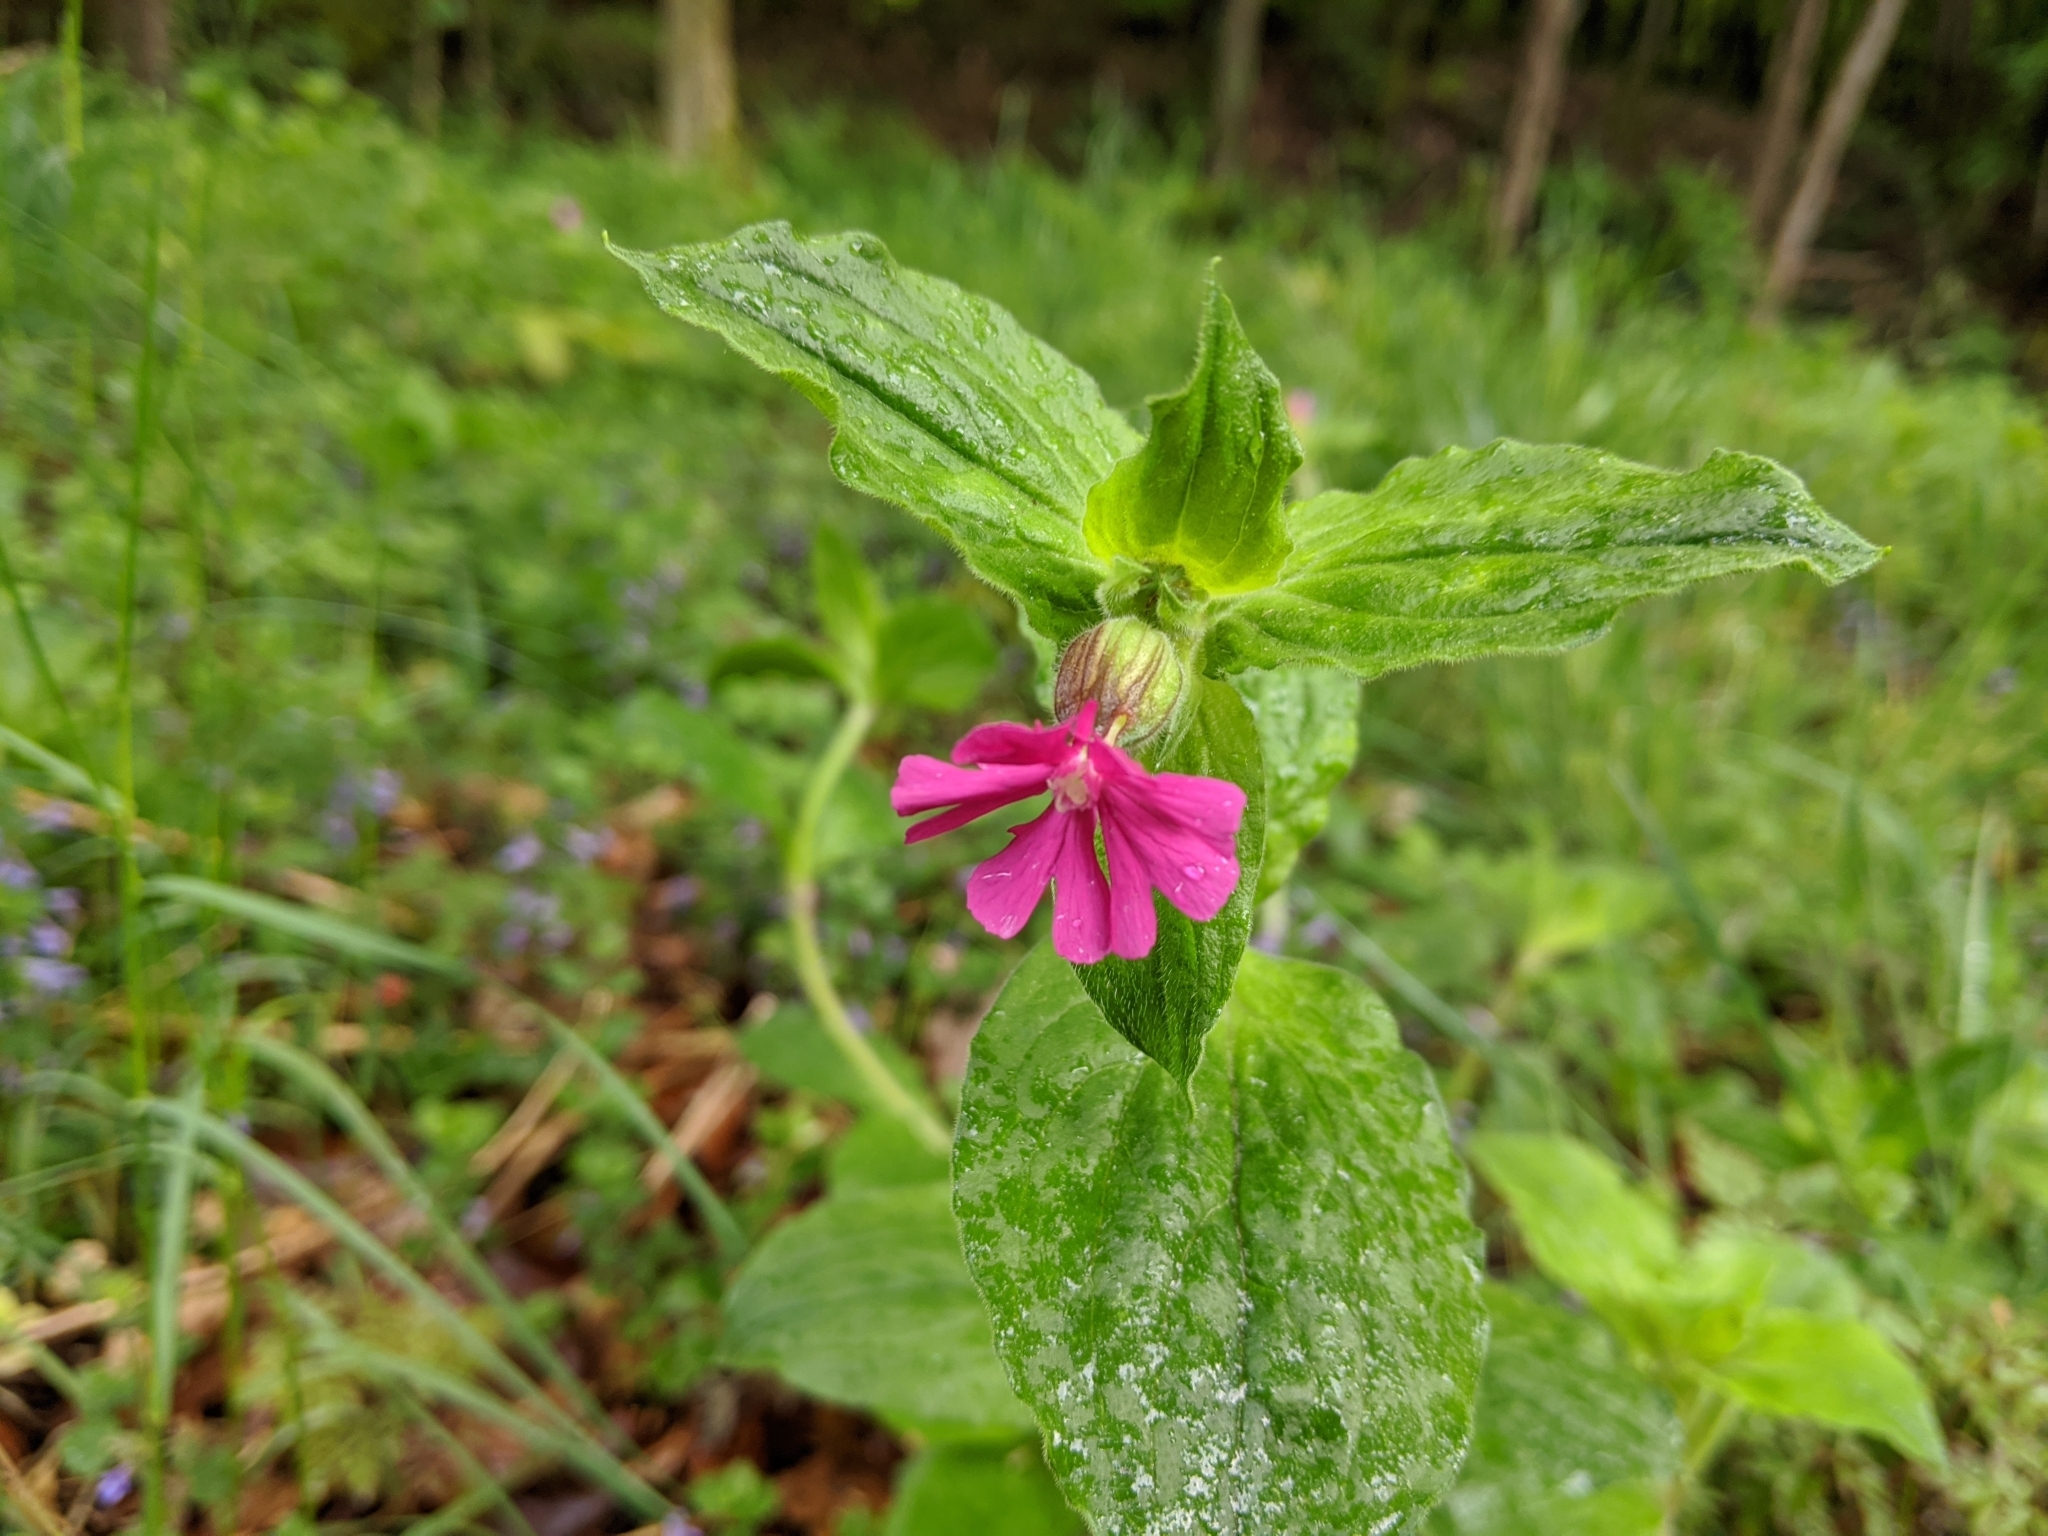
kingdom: Plantae
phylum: Tracheophyta
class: Magnoliopsida
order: Caryophyllales
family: Caryophyllaceae
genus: Silene
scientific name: Silene dioica
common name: Red campion
